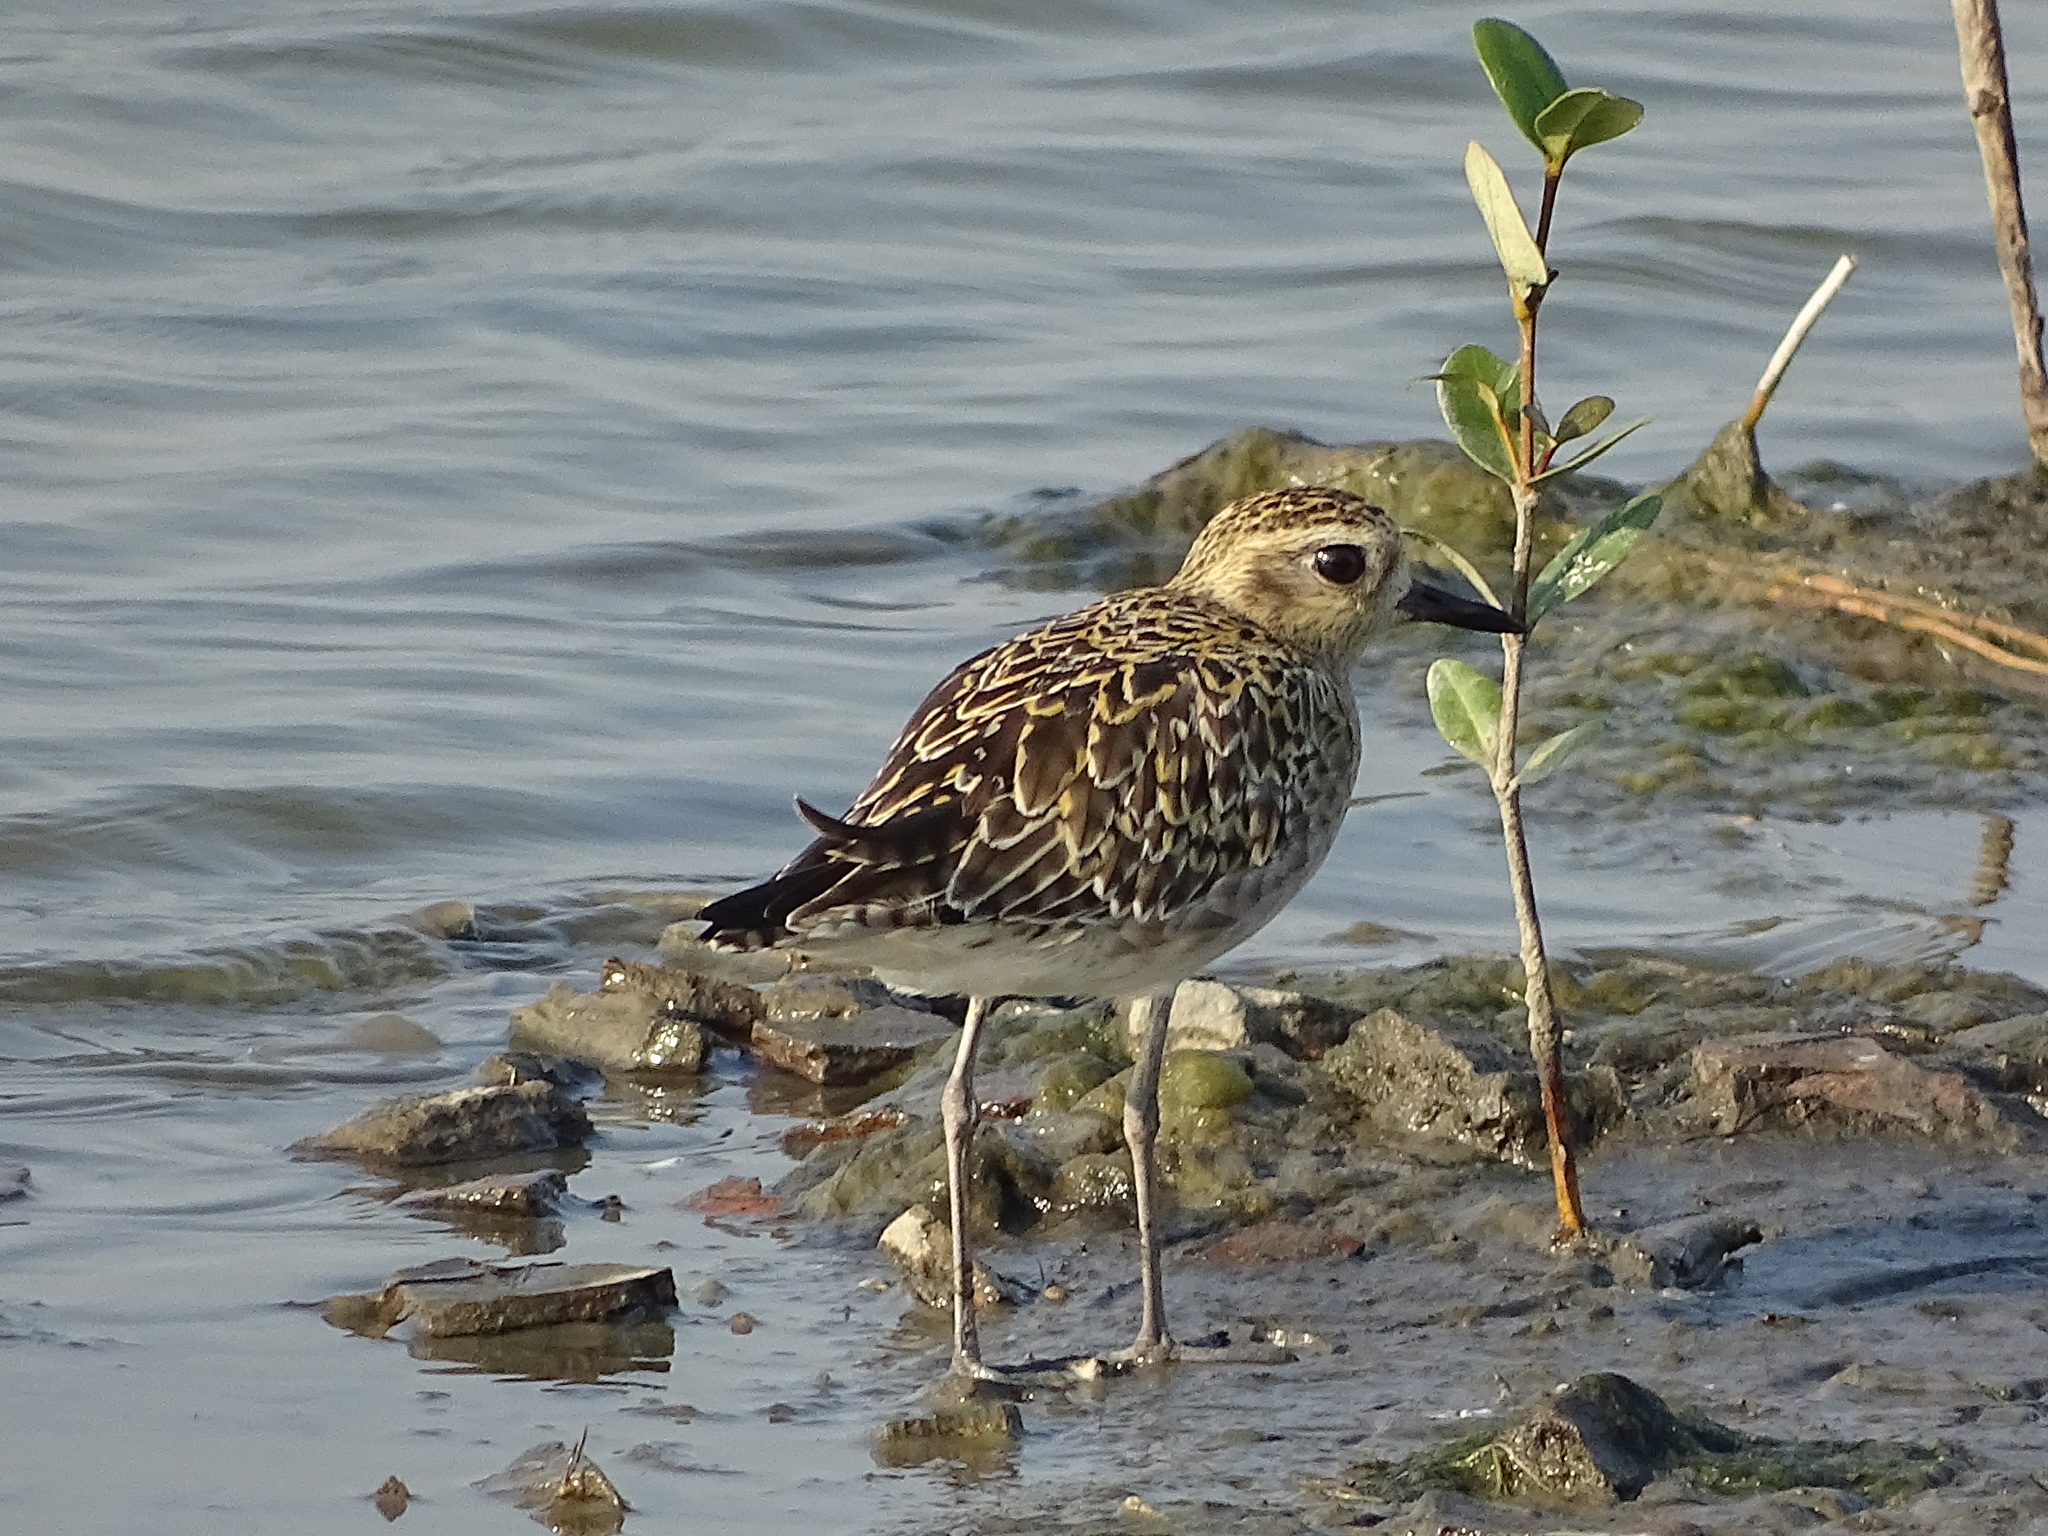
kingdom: Animalia
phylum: Chordata
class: Aves
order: Charadriiformes
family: Charadriidae
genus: Pluvialis
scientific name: Pluvialis fulva
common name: Pacific golden plover
